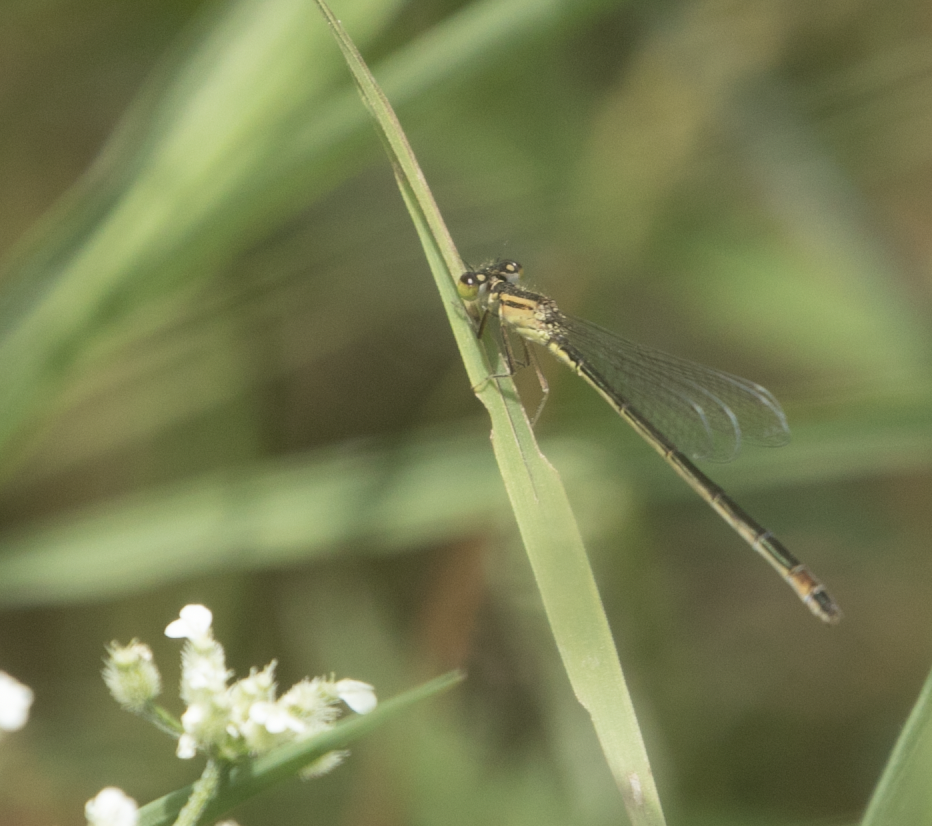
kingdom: Animalia
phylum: Arthropoda
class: Insecta
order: Odonata
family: Coenagrionidae
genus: Ischnura
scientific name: Ischnura elegans
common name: Blue-tailed damselfly
